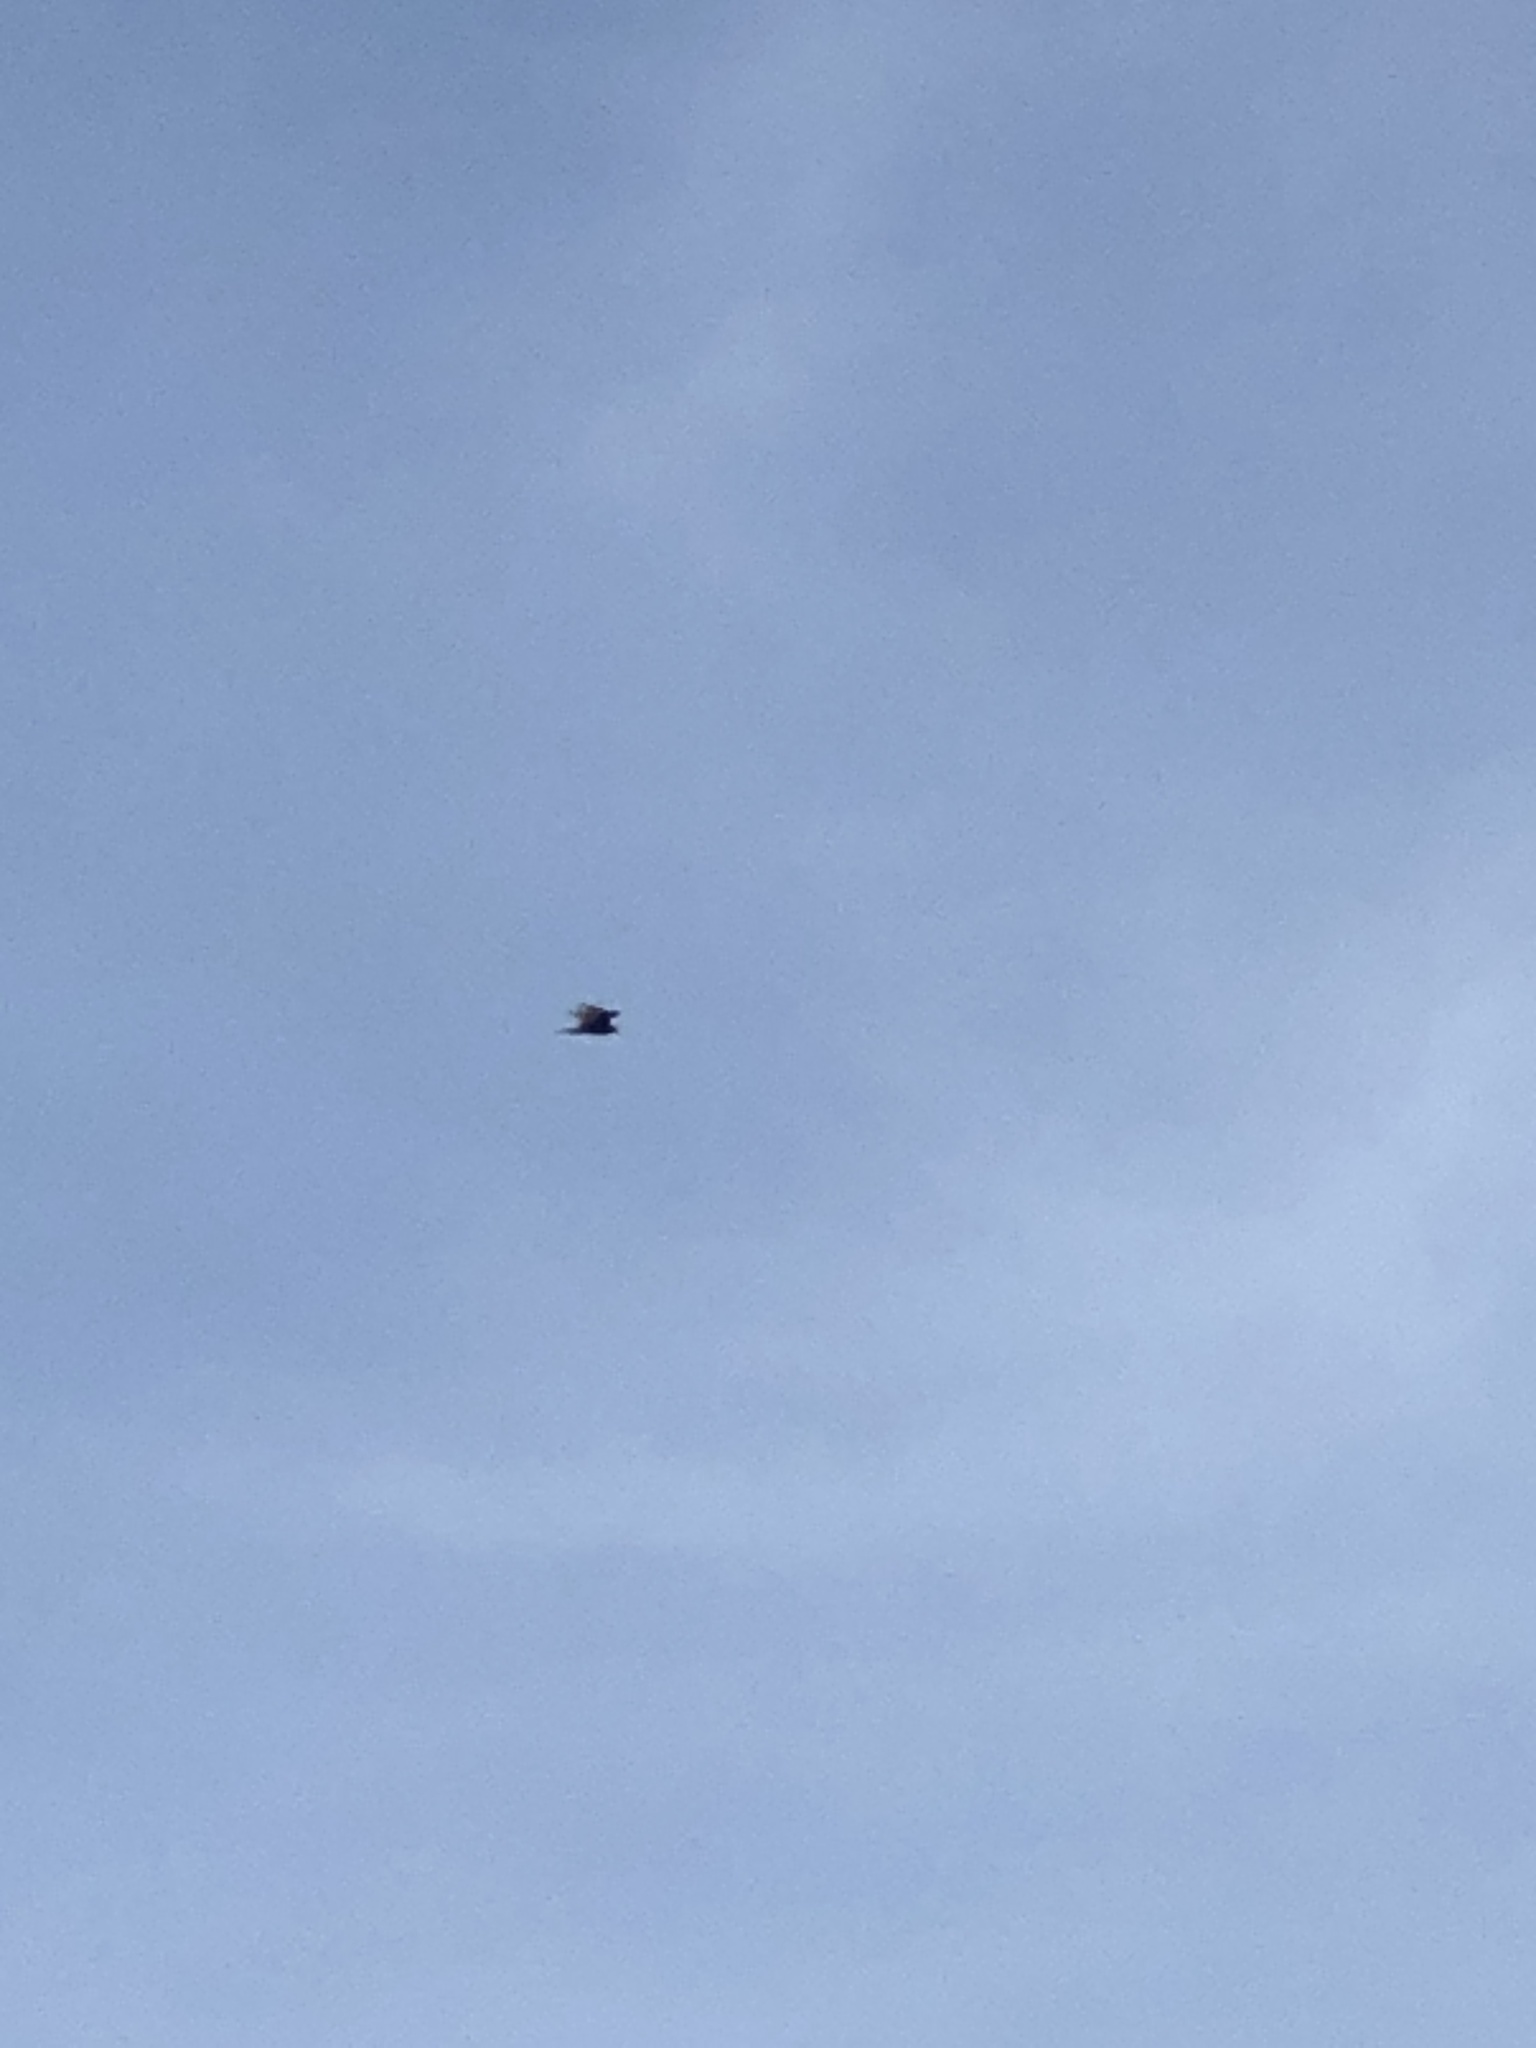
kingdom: Animalia
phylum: Chordata
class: Aves
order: Accipitriformes
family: Cathartidae
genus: Cathartes
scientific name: Cathartes aura
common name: Turkey vulture
